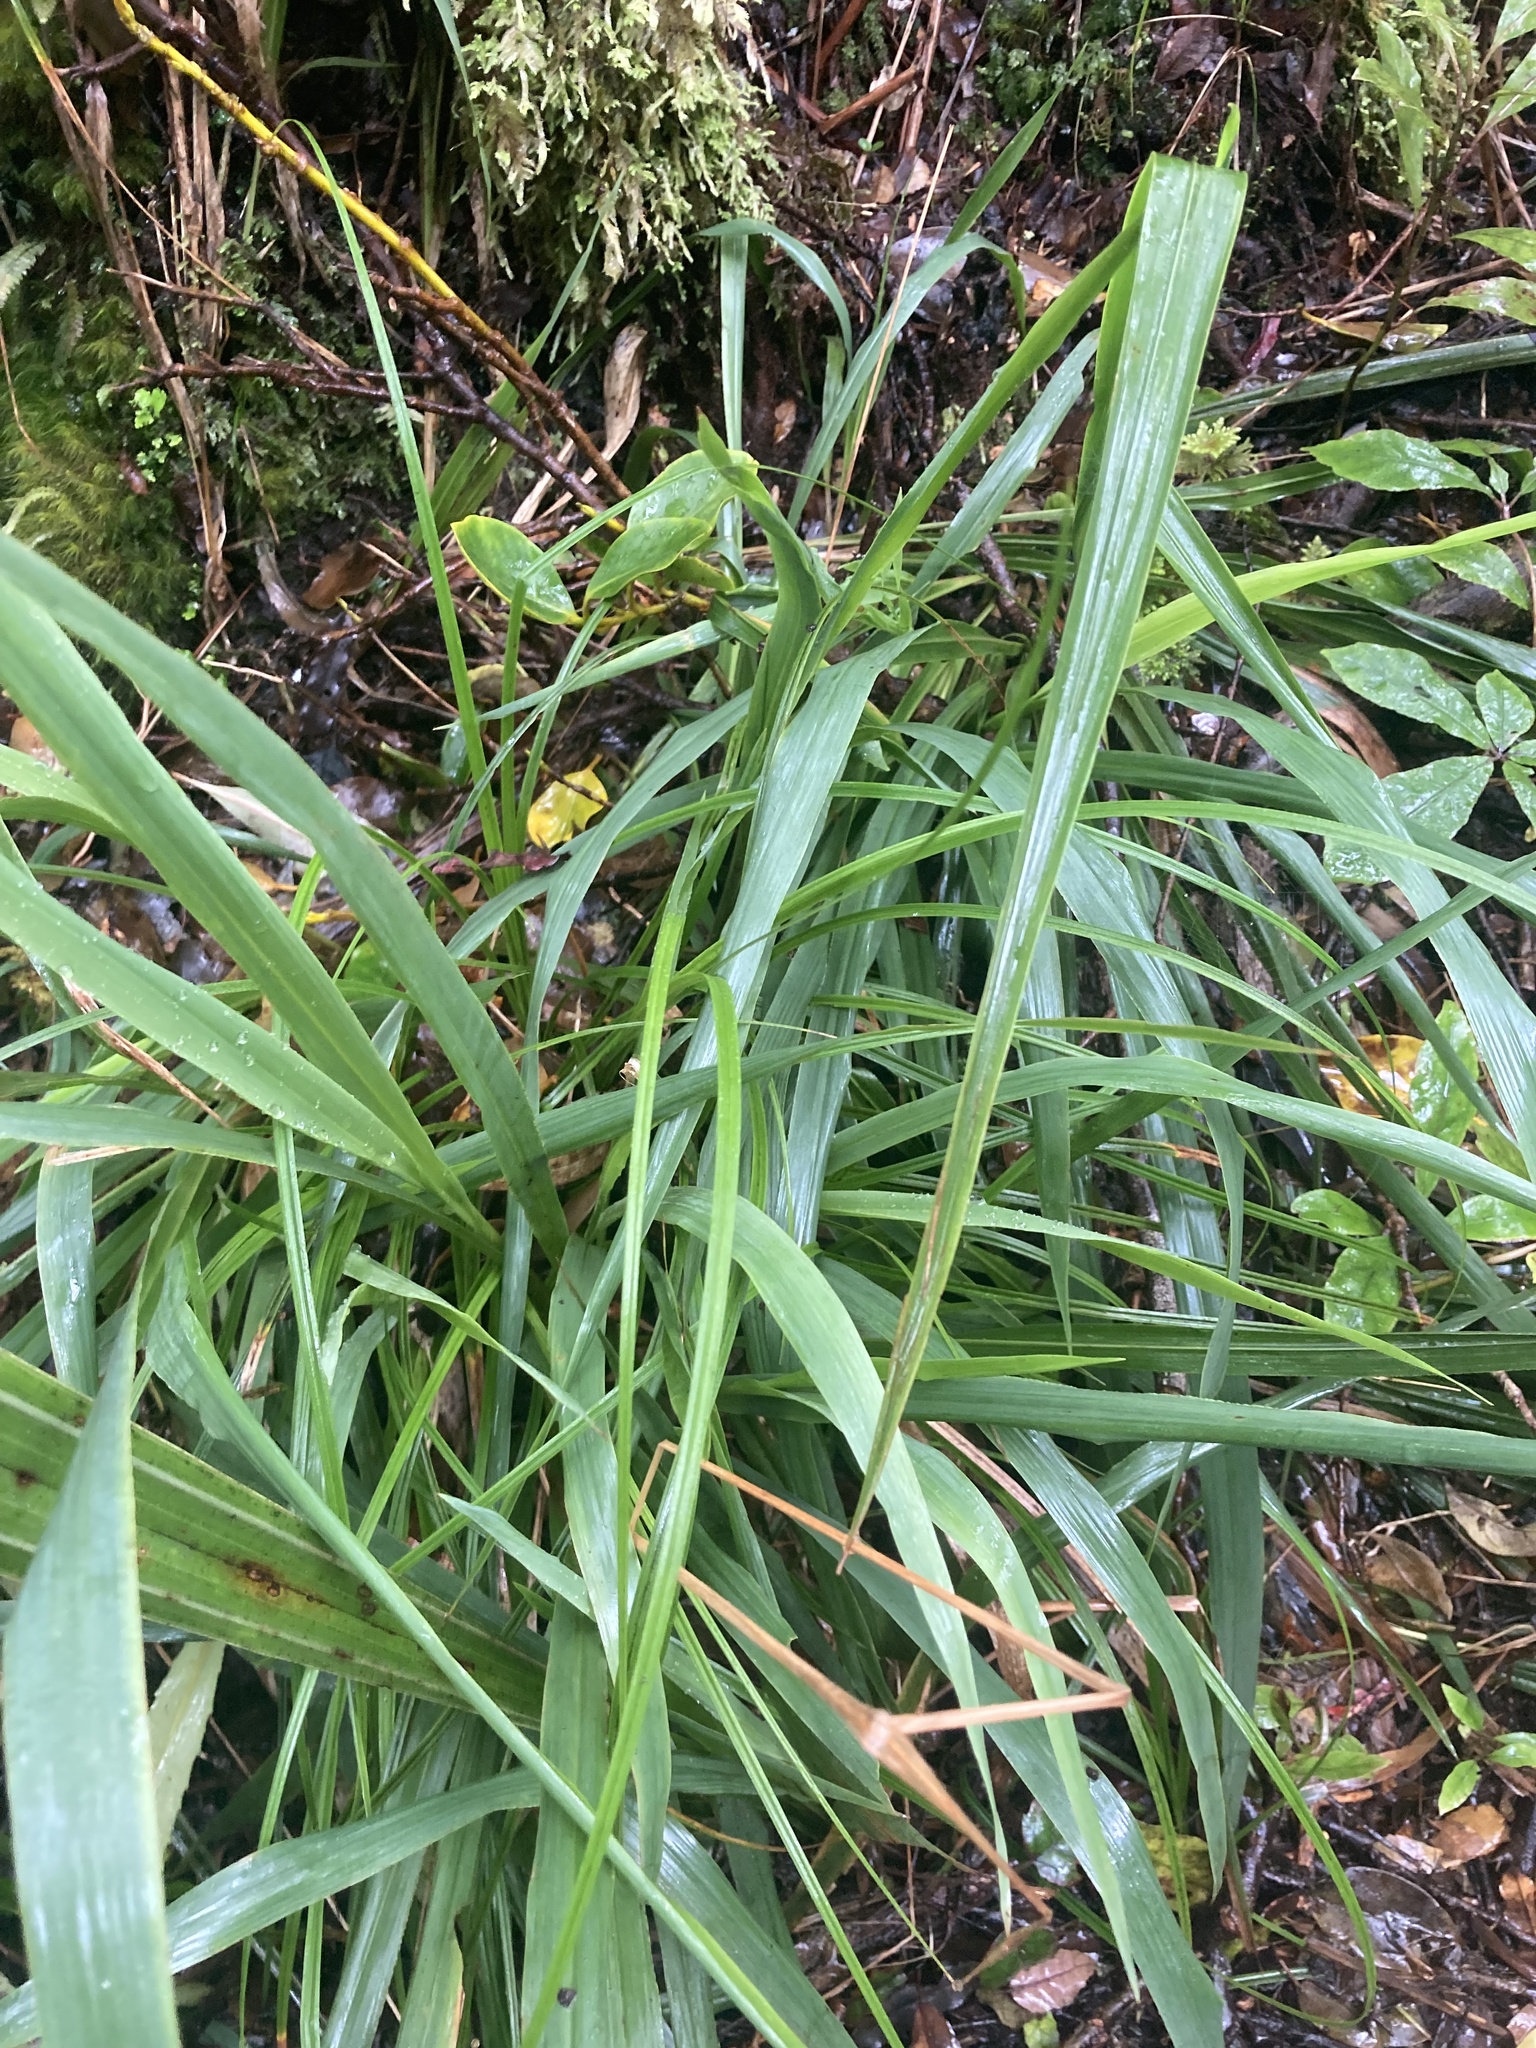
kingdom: Plantae
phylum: Tracheophyta
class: Liliopsida
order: Poales
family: Poaceae
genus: Ehrharta
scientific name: Ehrharta diplax
